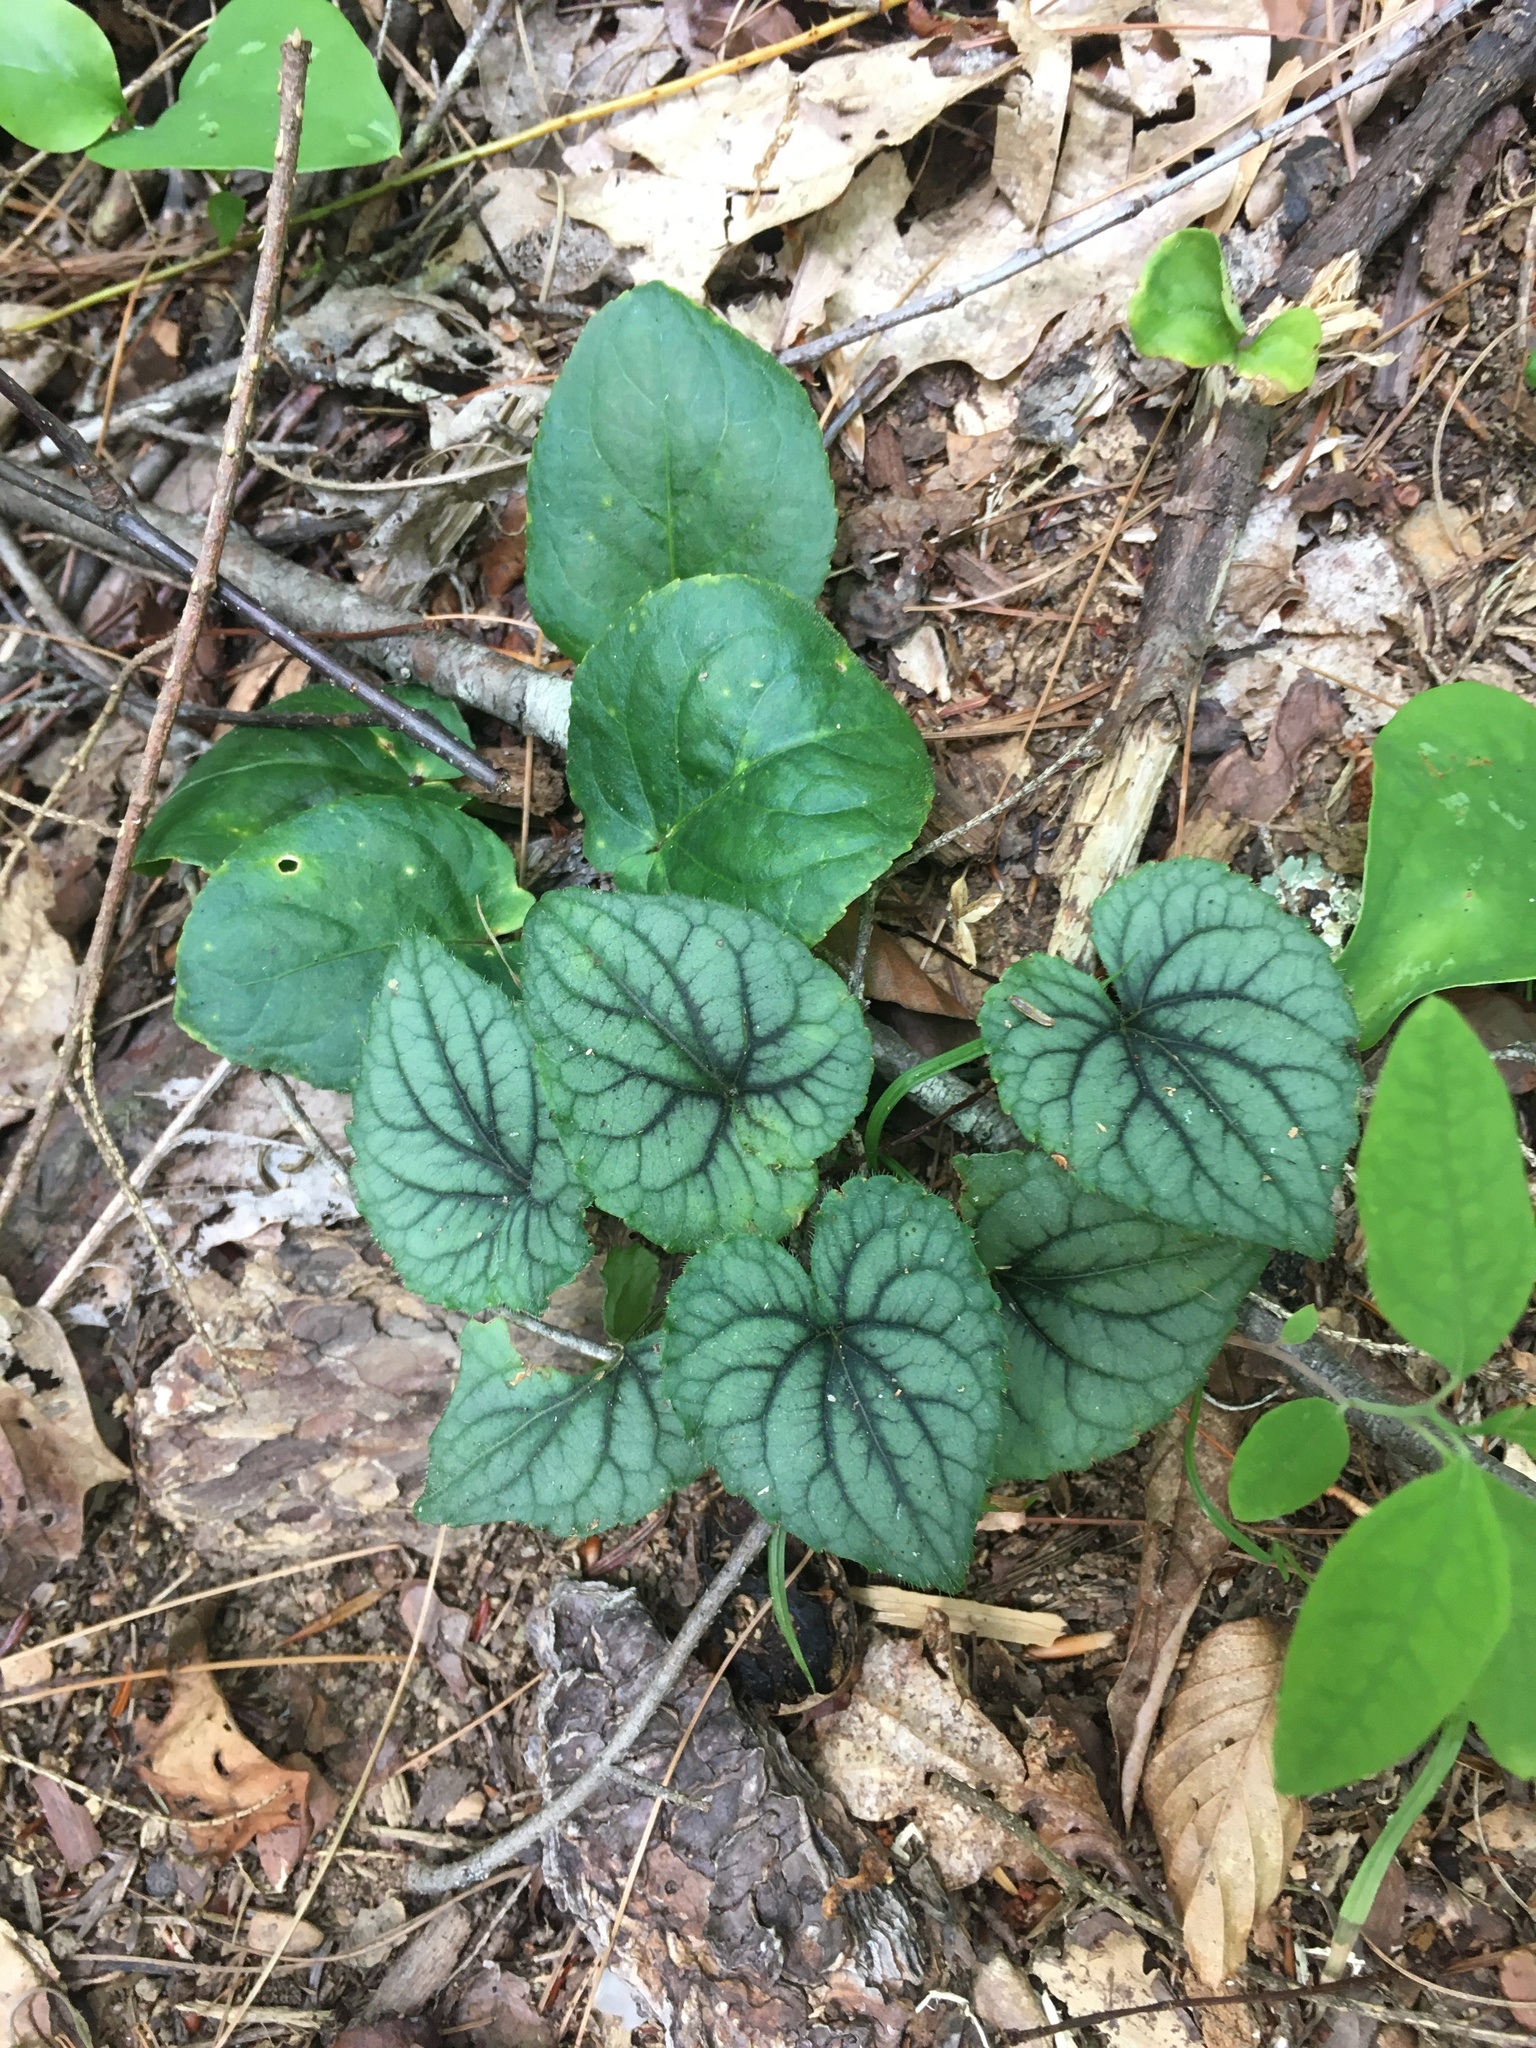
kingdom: Plantae
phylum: Tracheophyta
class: Magnoliopsida
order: Malpighiales
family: Violaceae
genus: Viola
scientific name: Viola hirsutula
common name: Southern wood violet
